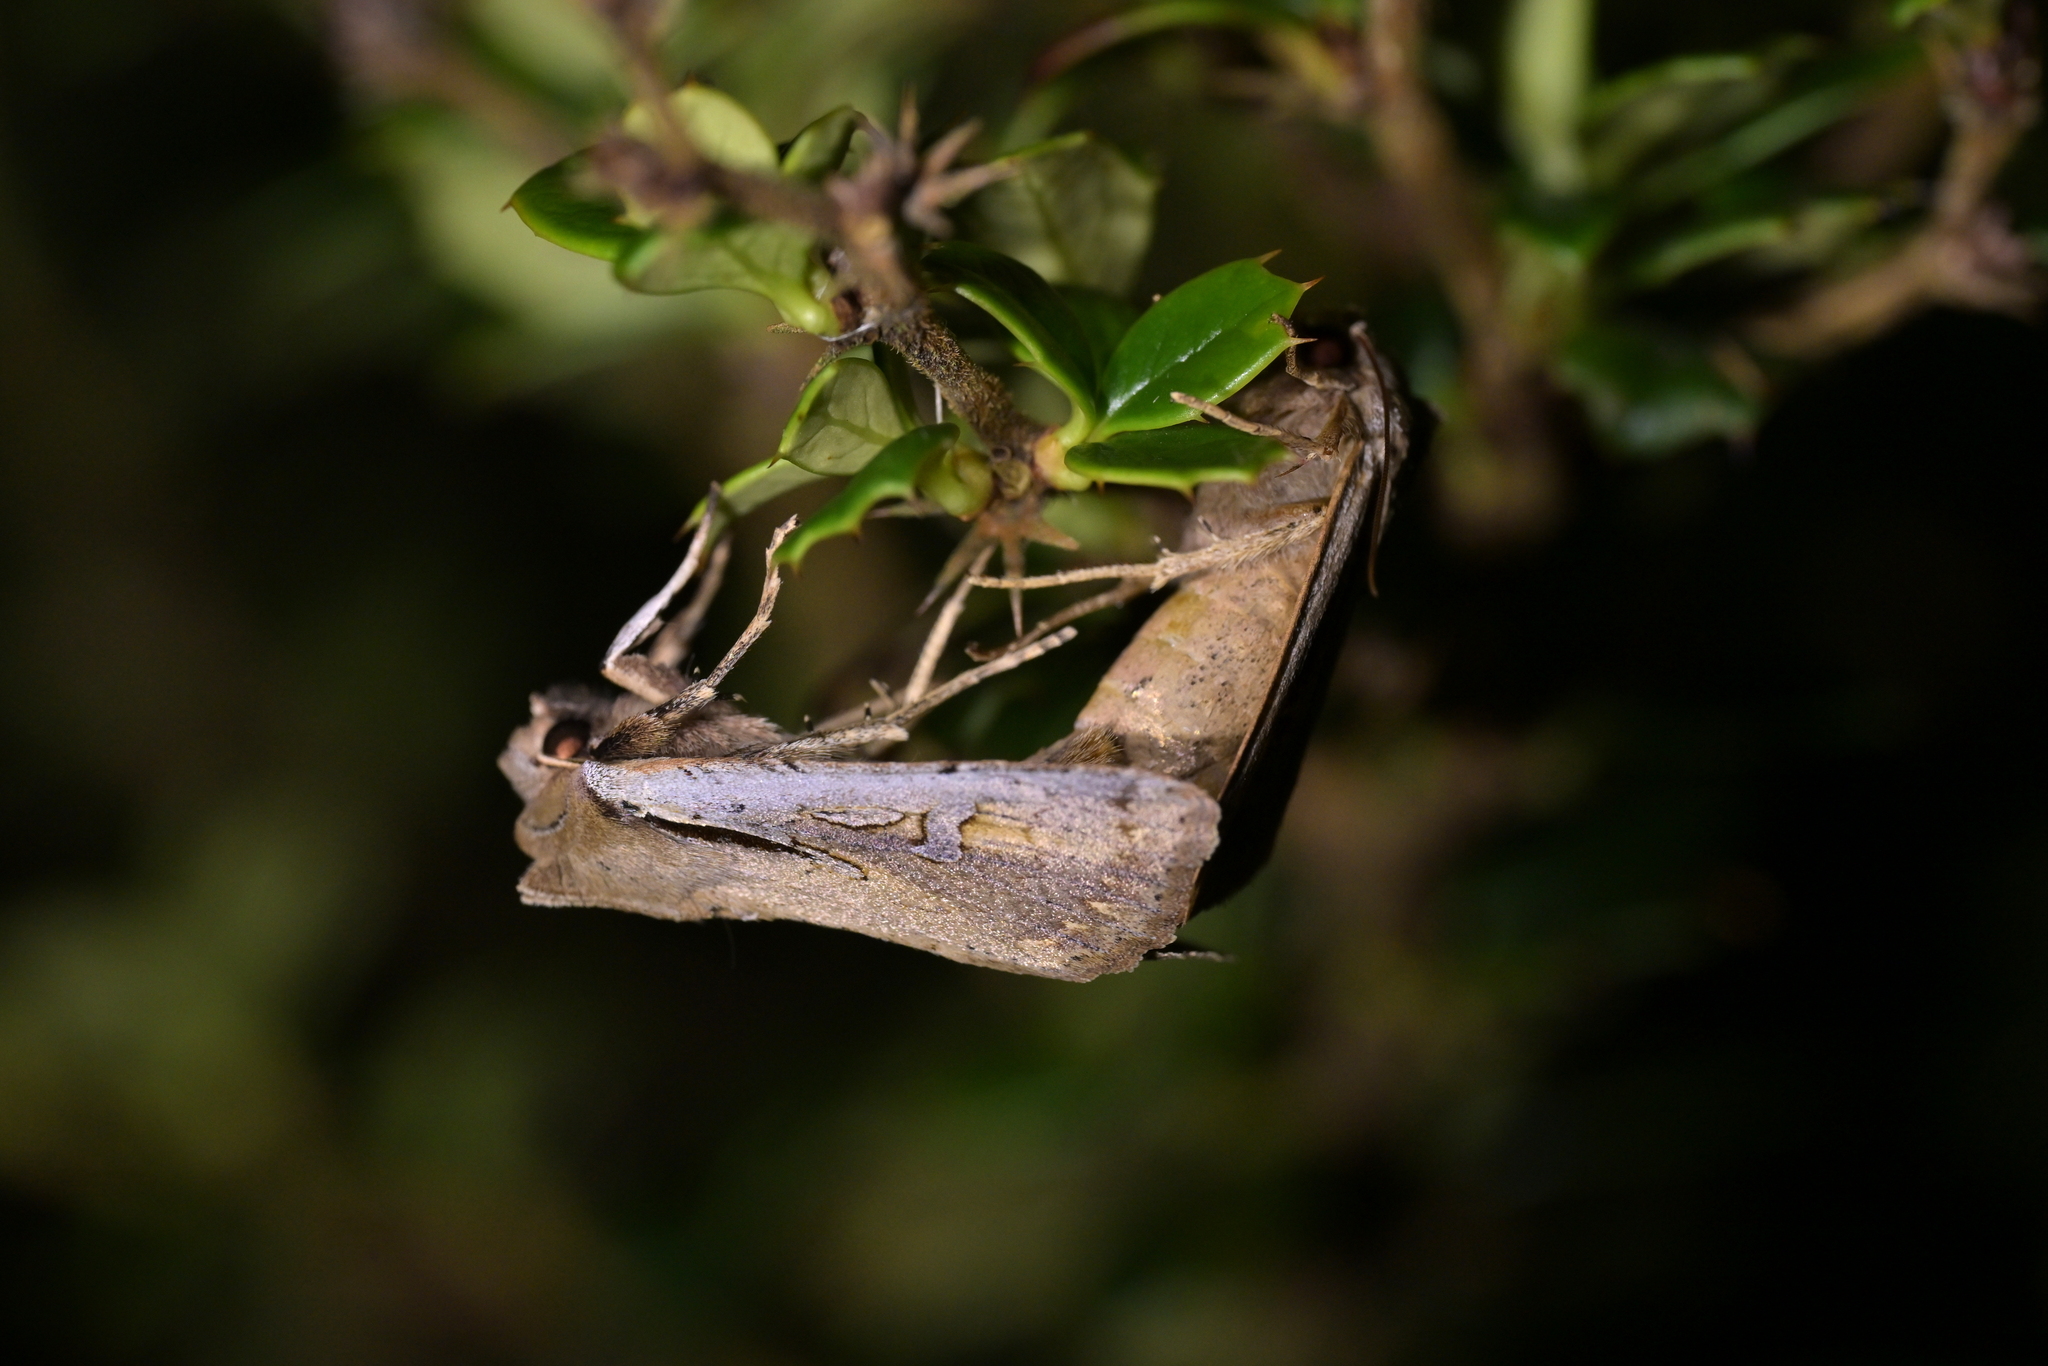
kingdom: Animalia
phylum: Arthropoda
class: Insecta
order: Lepidoptera
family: Noctuidae
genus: Ichneutica
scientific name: Ichneutica atristriga
